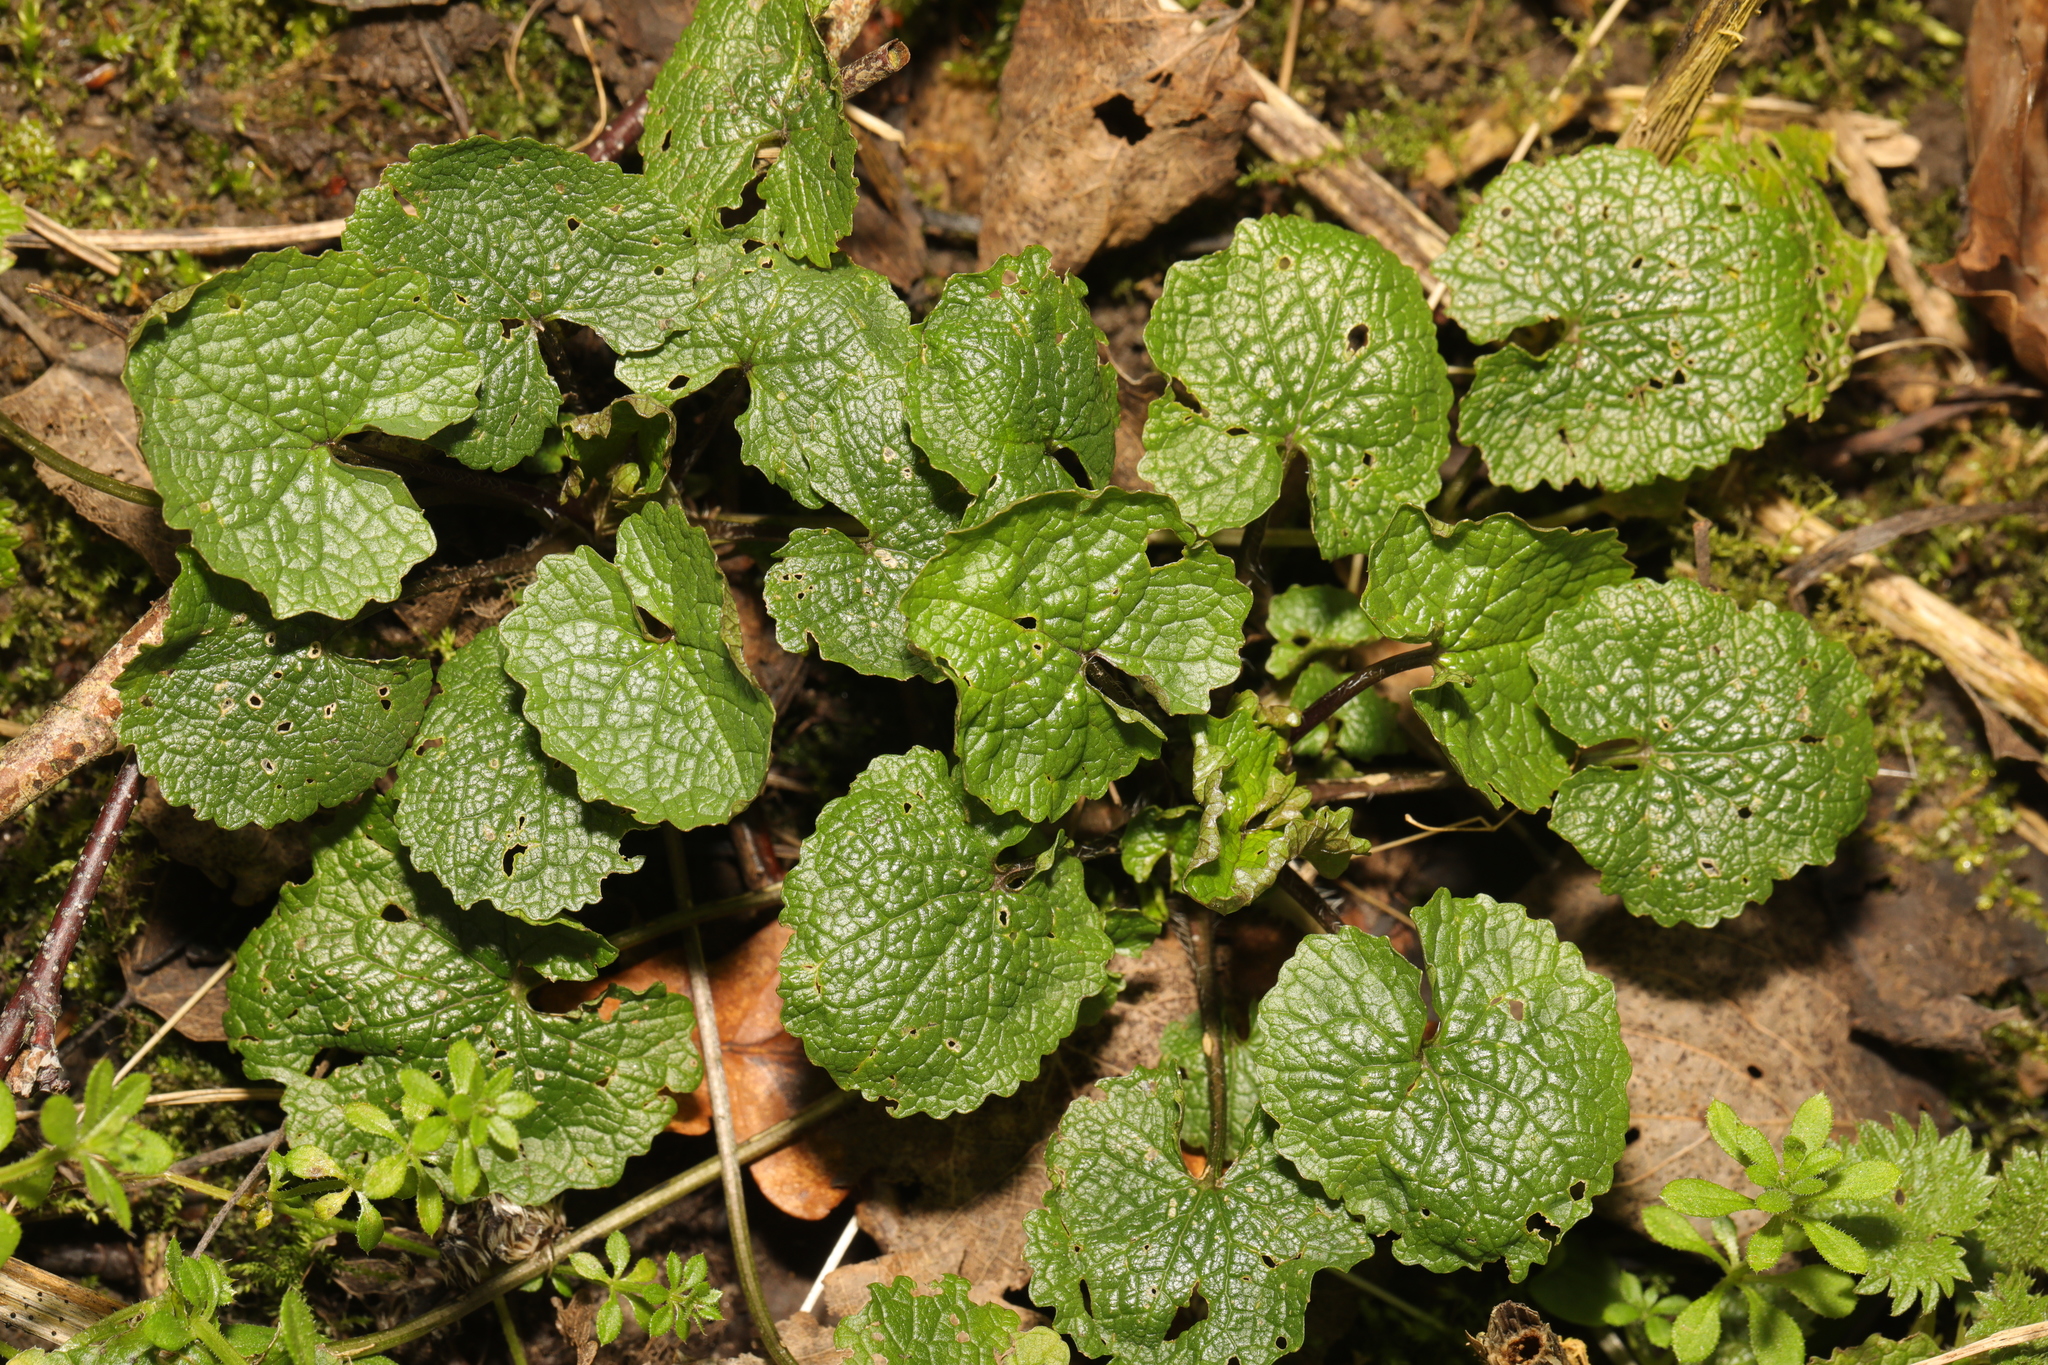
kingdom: Plantae
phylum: Tracheophyta
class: Magnoliopsida
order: Brassicales
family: Brassicaceae
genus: Alliaria
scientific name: Alliaria petiolata
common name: Garlic mustard
